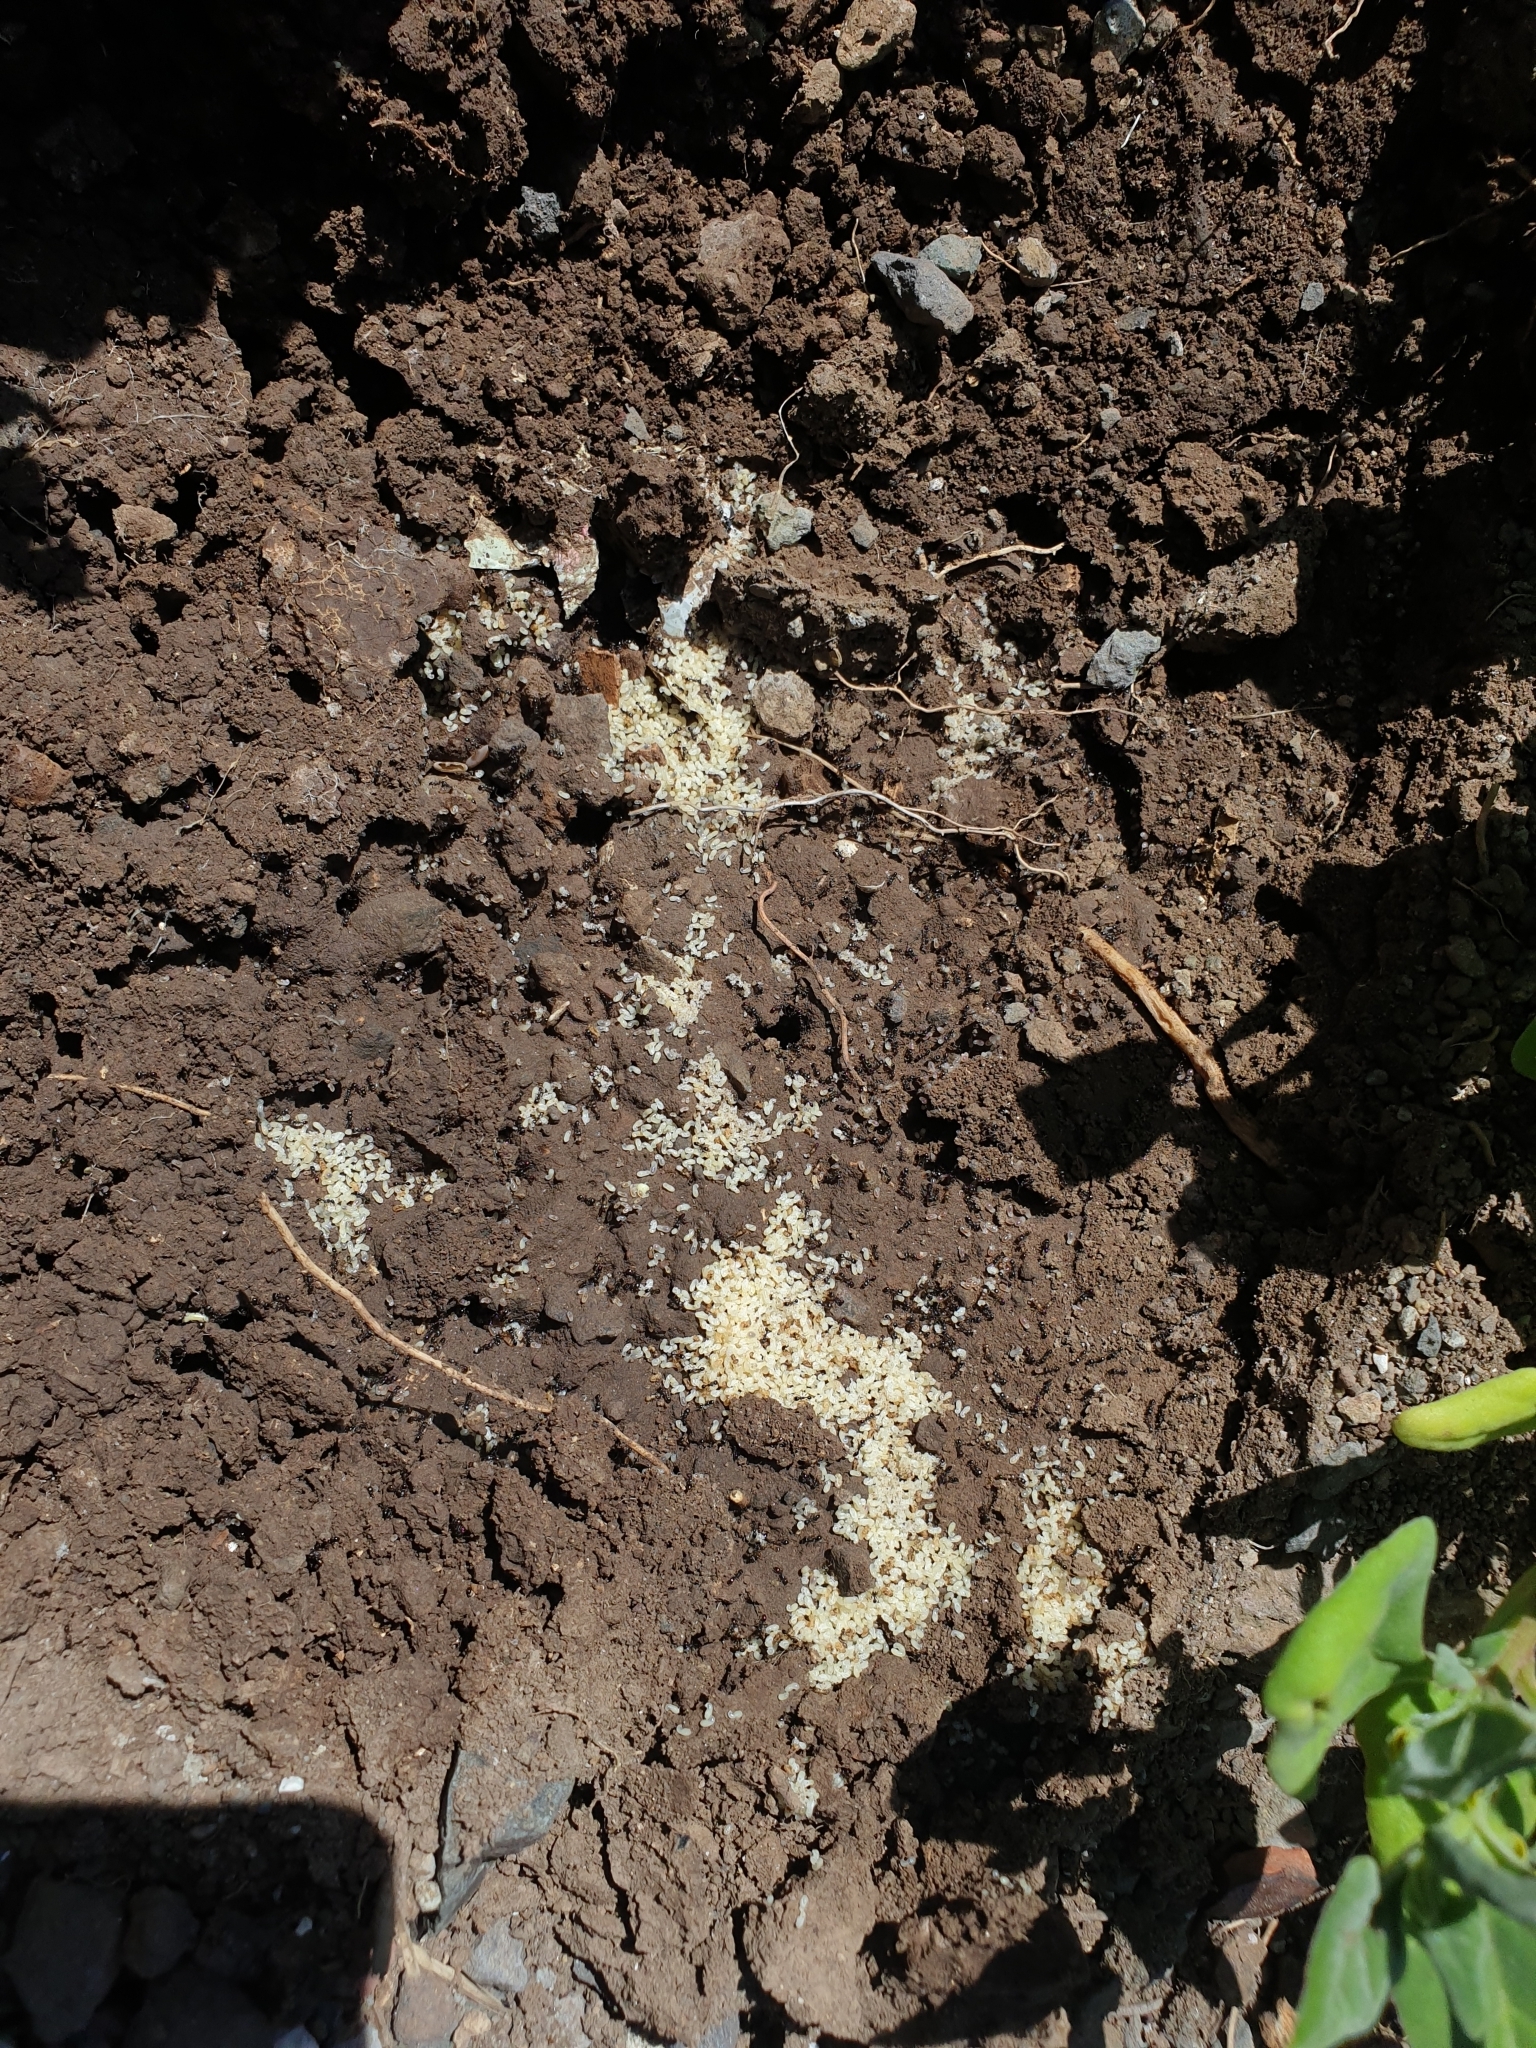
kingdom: Animalia
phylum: Arthropoda
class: Insecta
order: Hymenoptera
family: Formicidae
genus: Tetramorium
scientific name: Tetramorium tsushimae
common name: Ant
